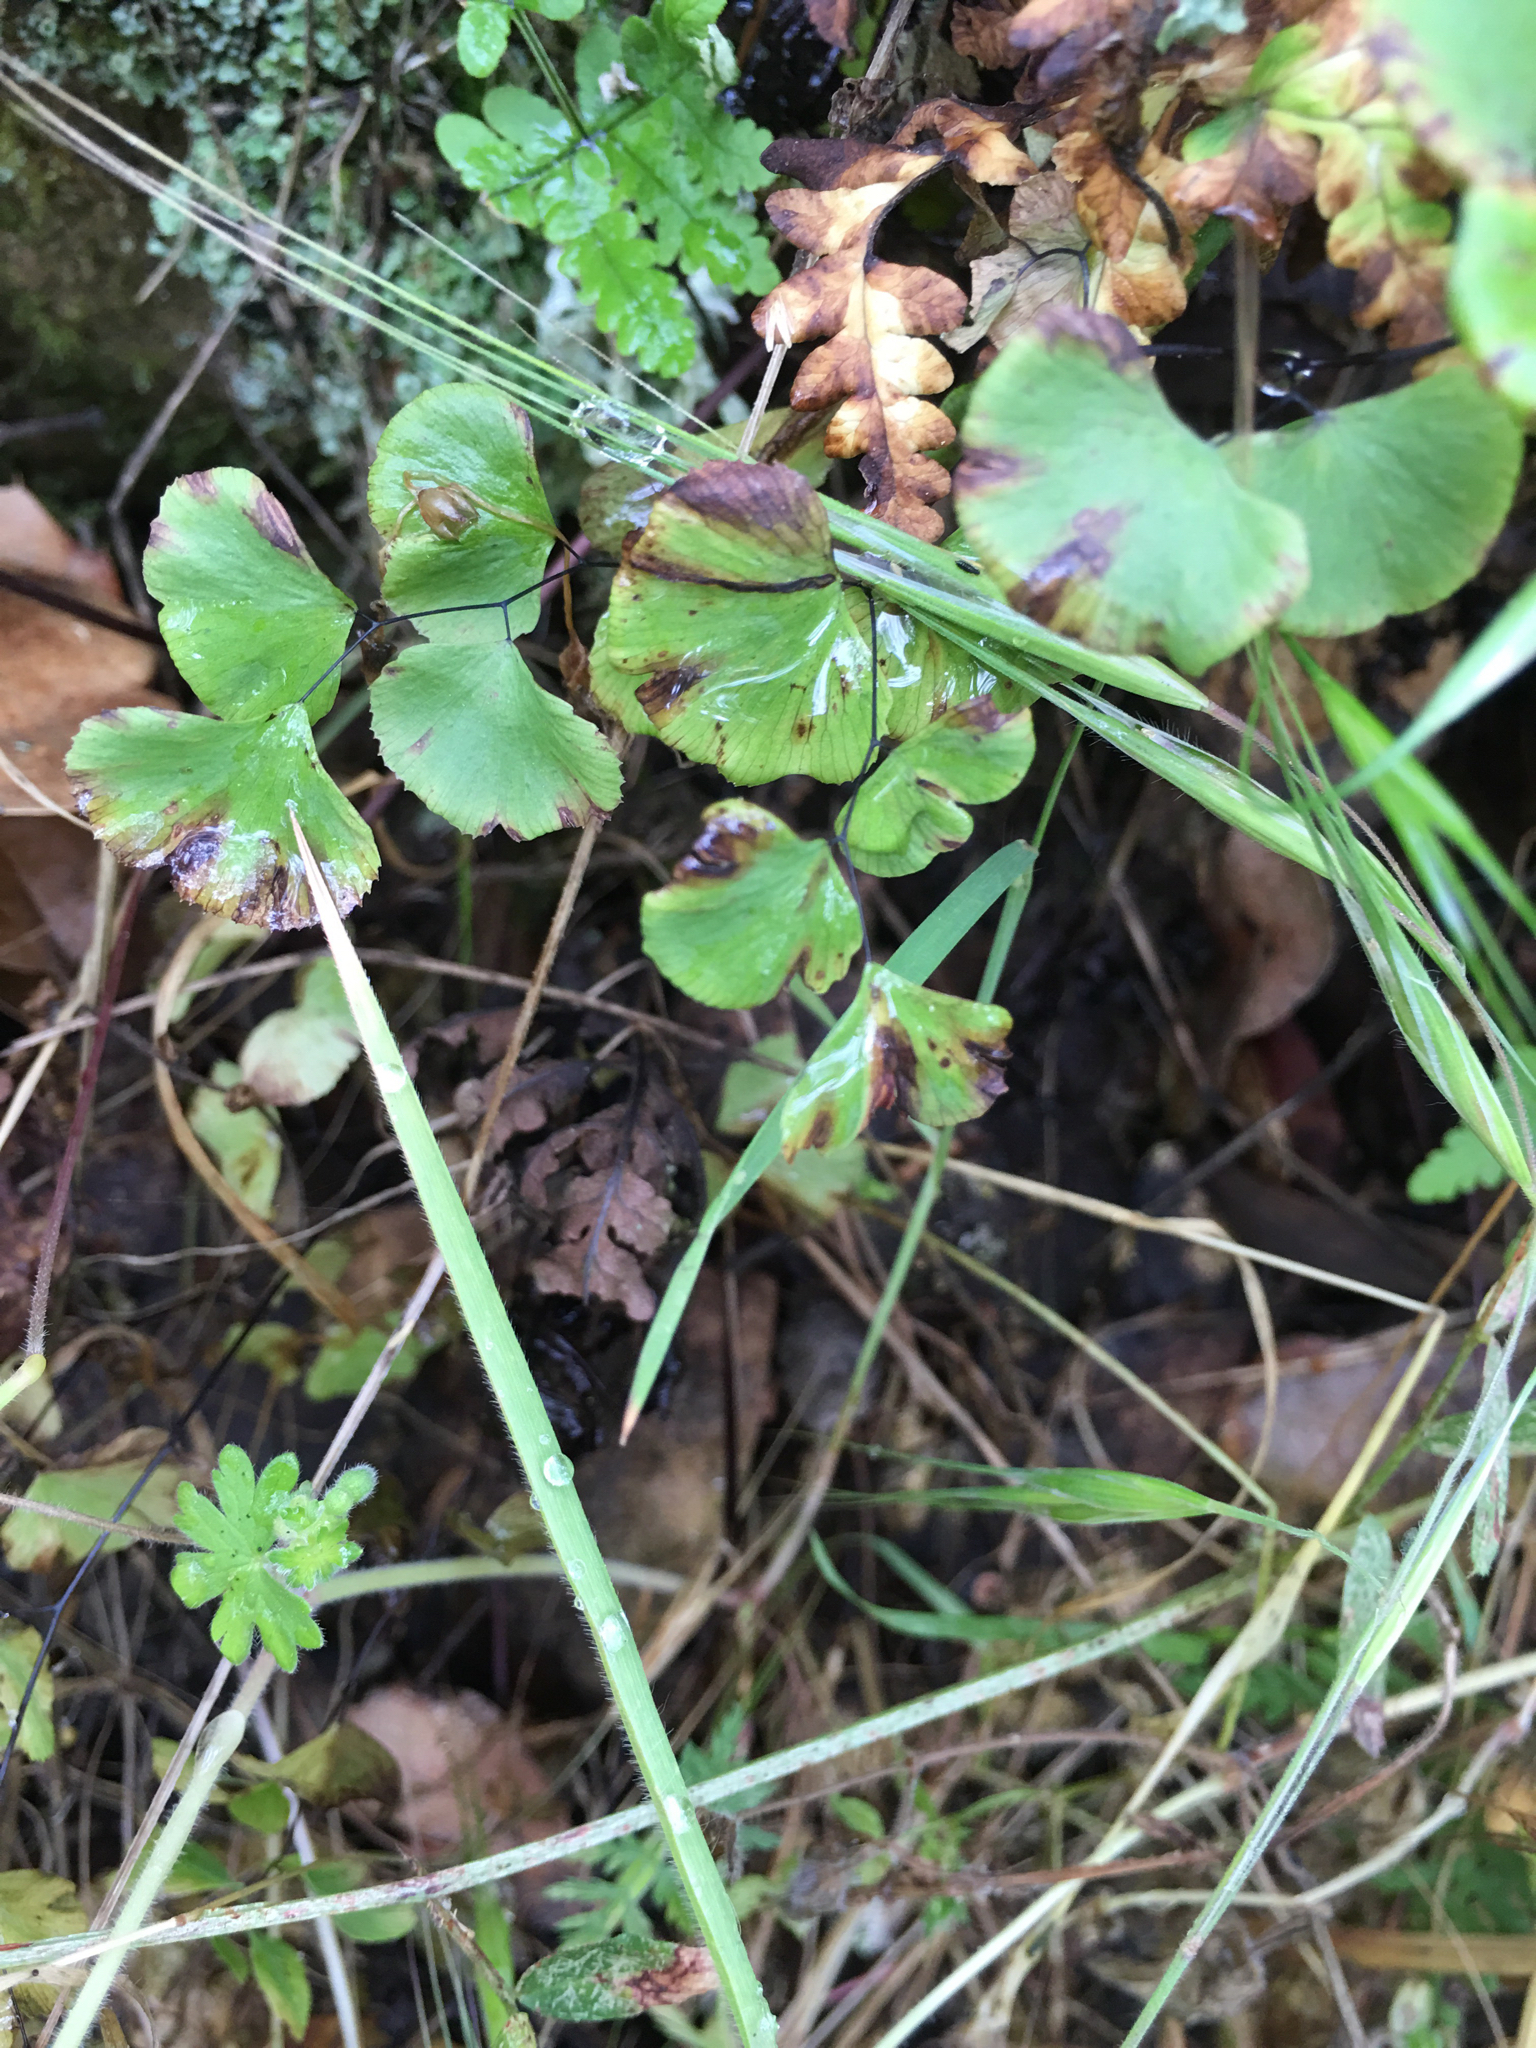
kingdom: Plantae
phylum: Tracheophyta
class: Polypodiopsida
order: Polypodiales
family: Pteridaceae
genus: Adiantum
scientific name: Adiantum jordanii
